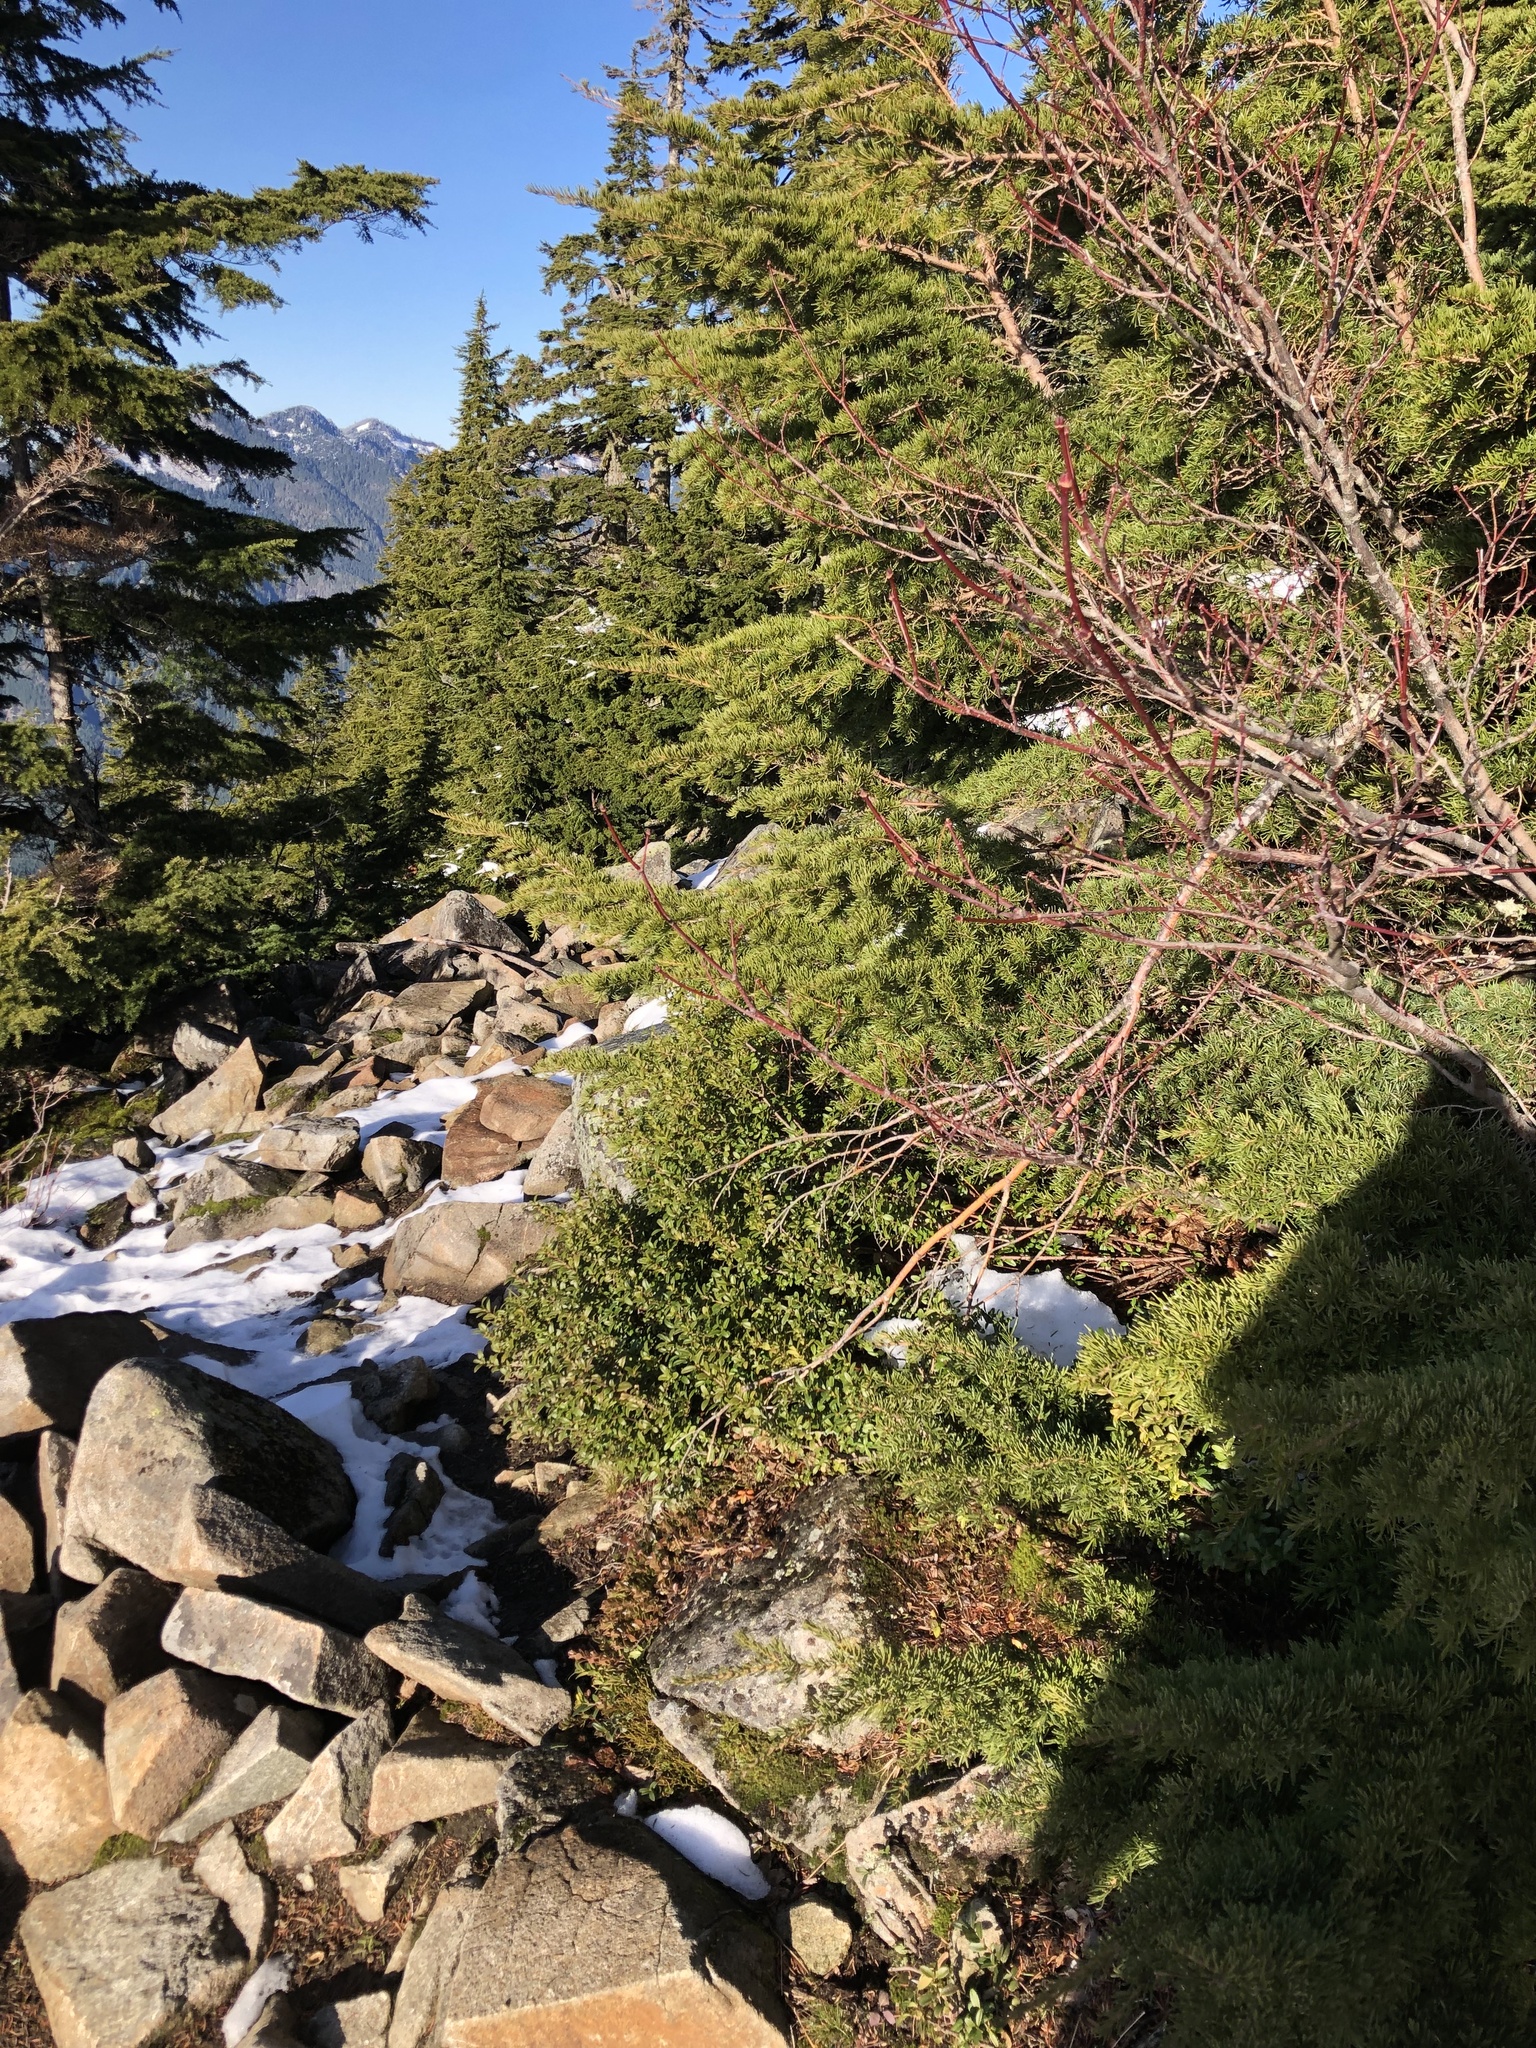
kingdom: Plantae
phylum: Tracheophyta
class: Magnoliopsida
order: Celastrales
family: Celastraceae
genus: Paxistima
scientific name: Paxistima myrsinites
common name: Mountain-lover
